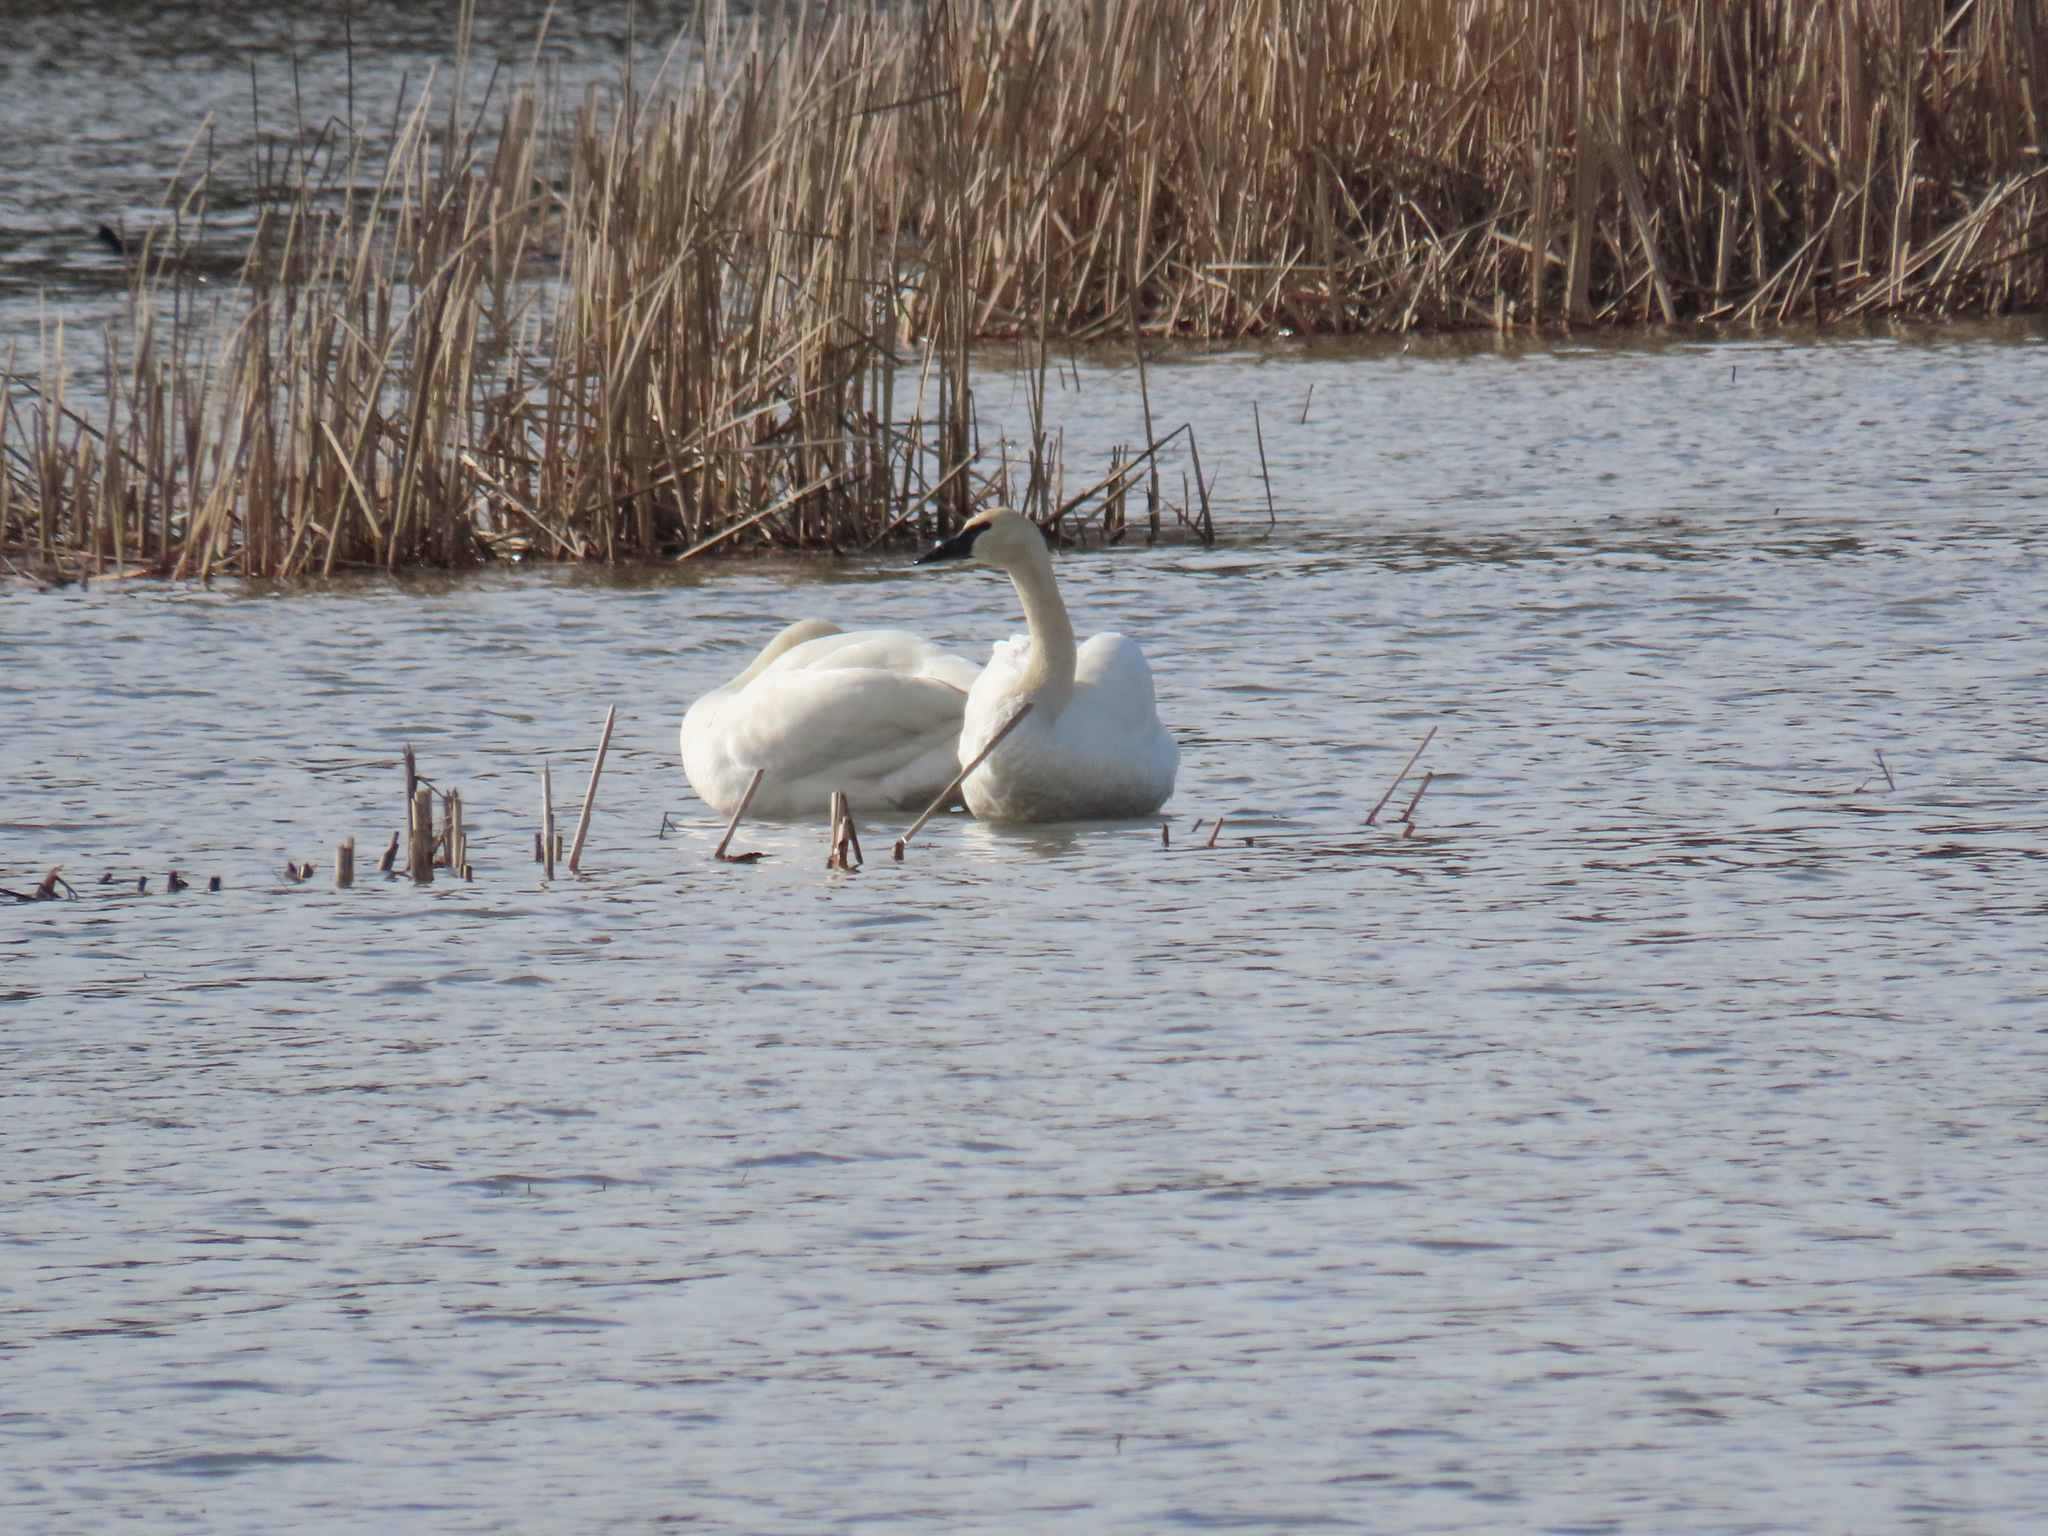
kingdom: Animalia
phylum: Chordata
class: Aves
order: Anseriformes
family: Anatidae
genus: Cygnus
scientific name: Cygnus buccinator
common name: Trumpeter swan
